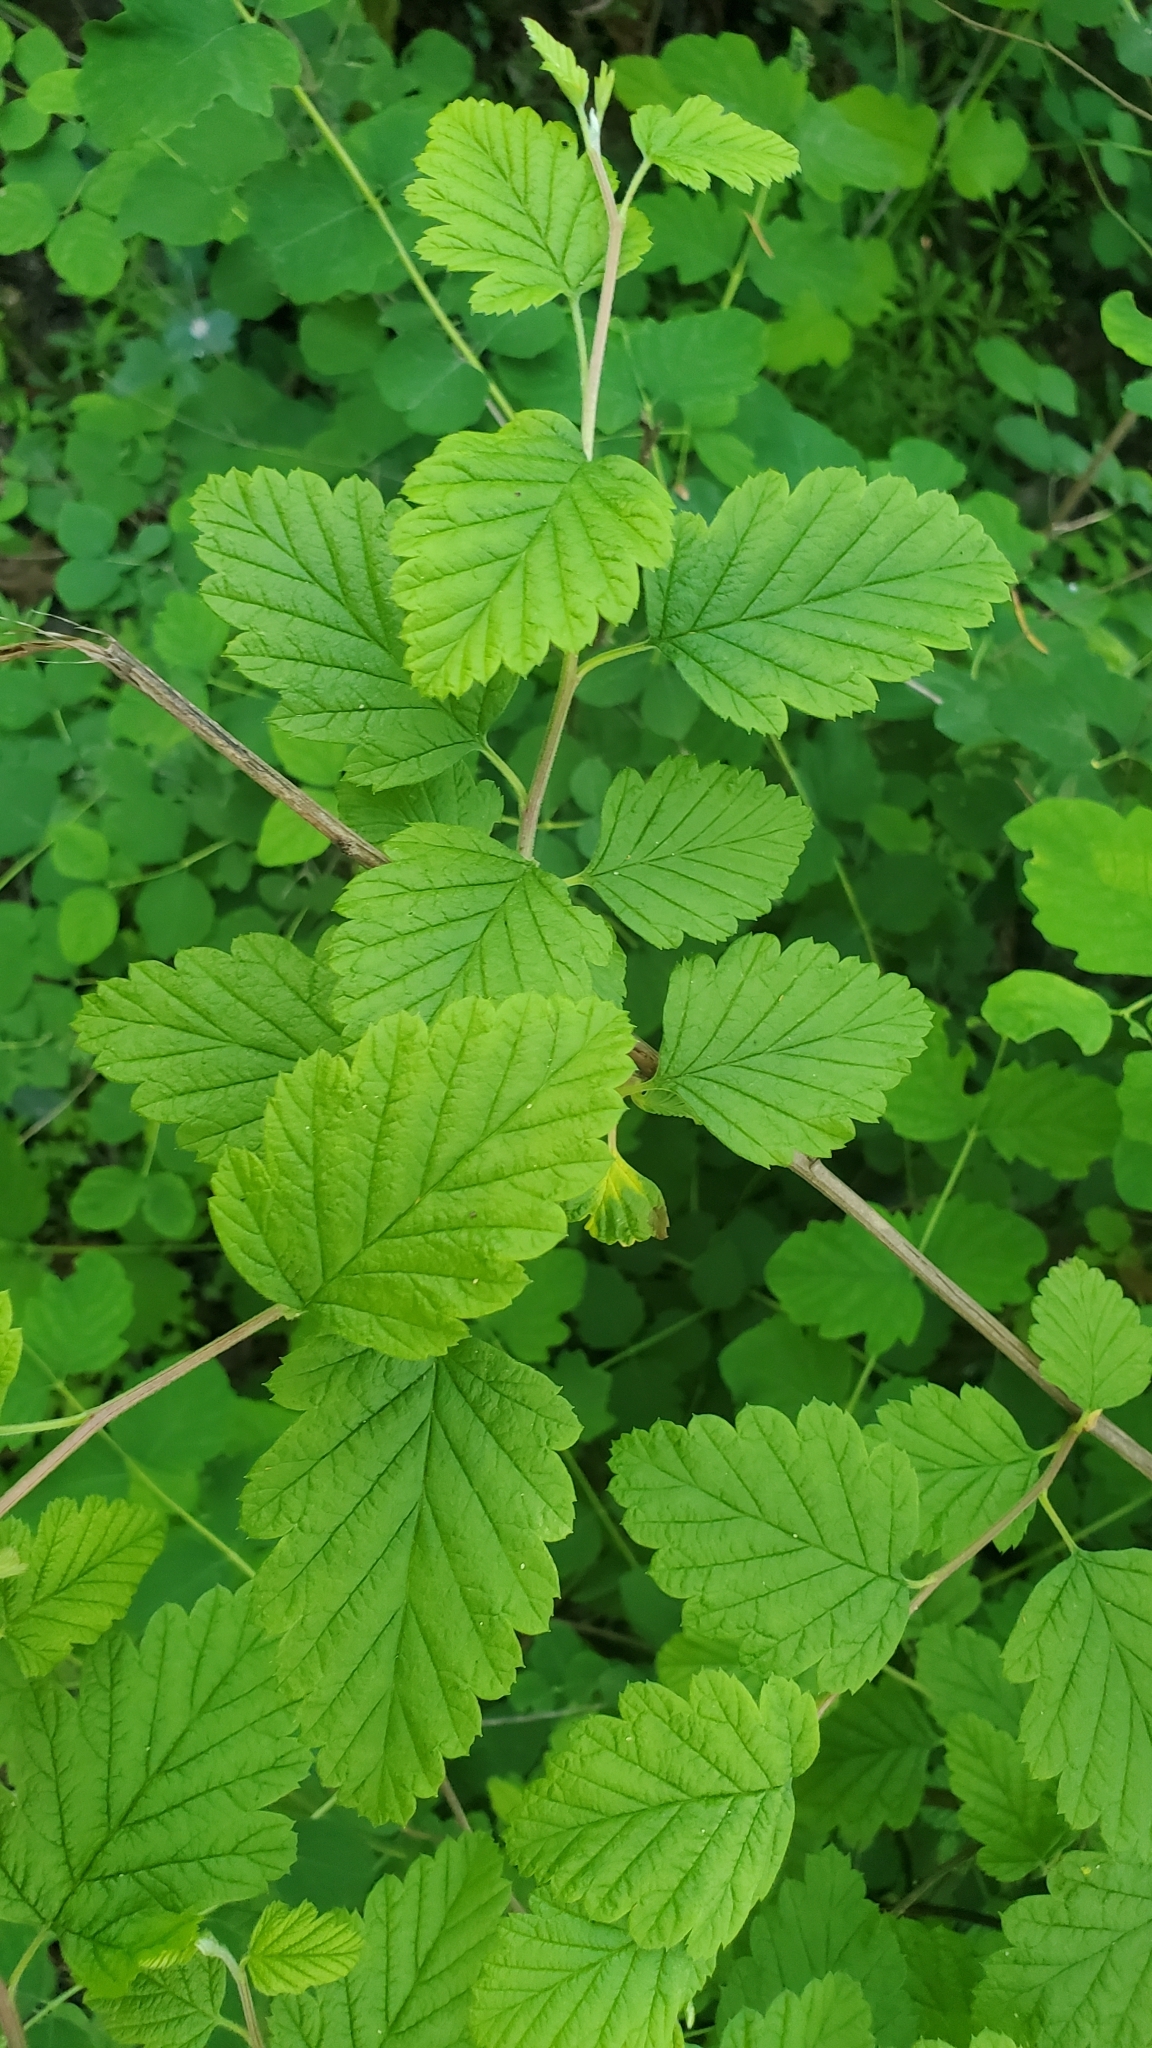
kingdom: Plantae
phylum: Tracheophyta
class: Magnoliopsida
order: Rosales
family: Rosaceae
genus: Holodiscus
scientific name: Holodiscus discolor
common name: Oceanspray
